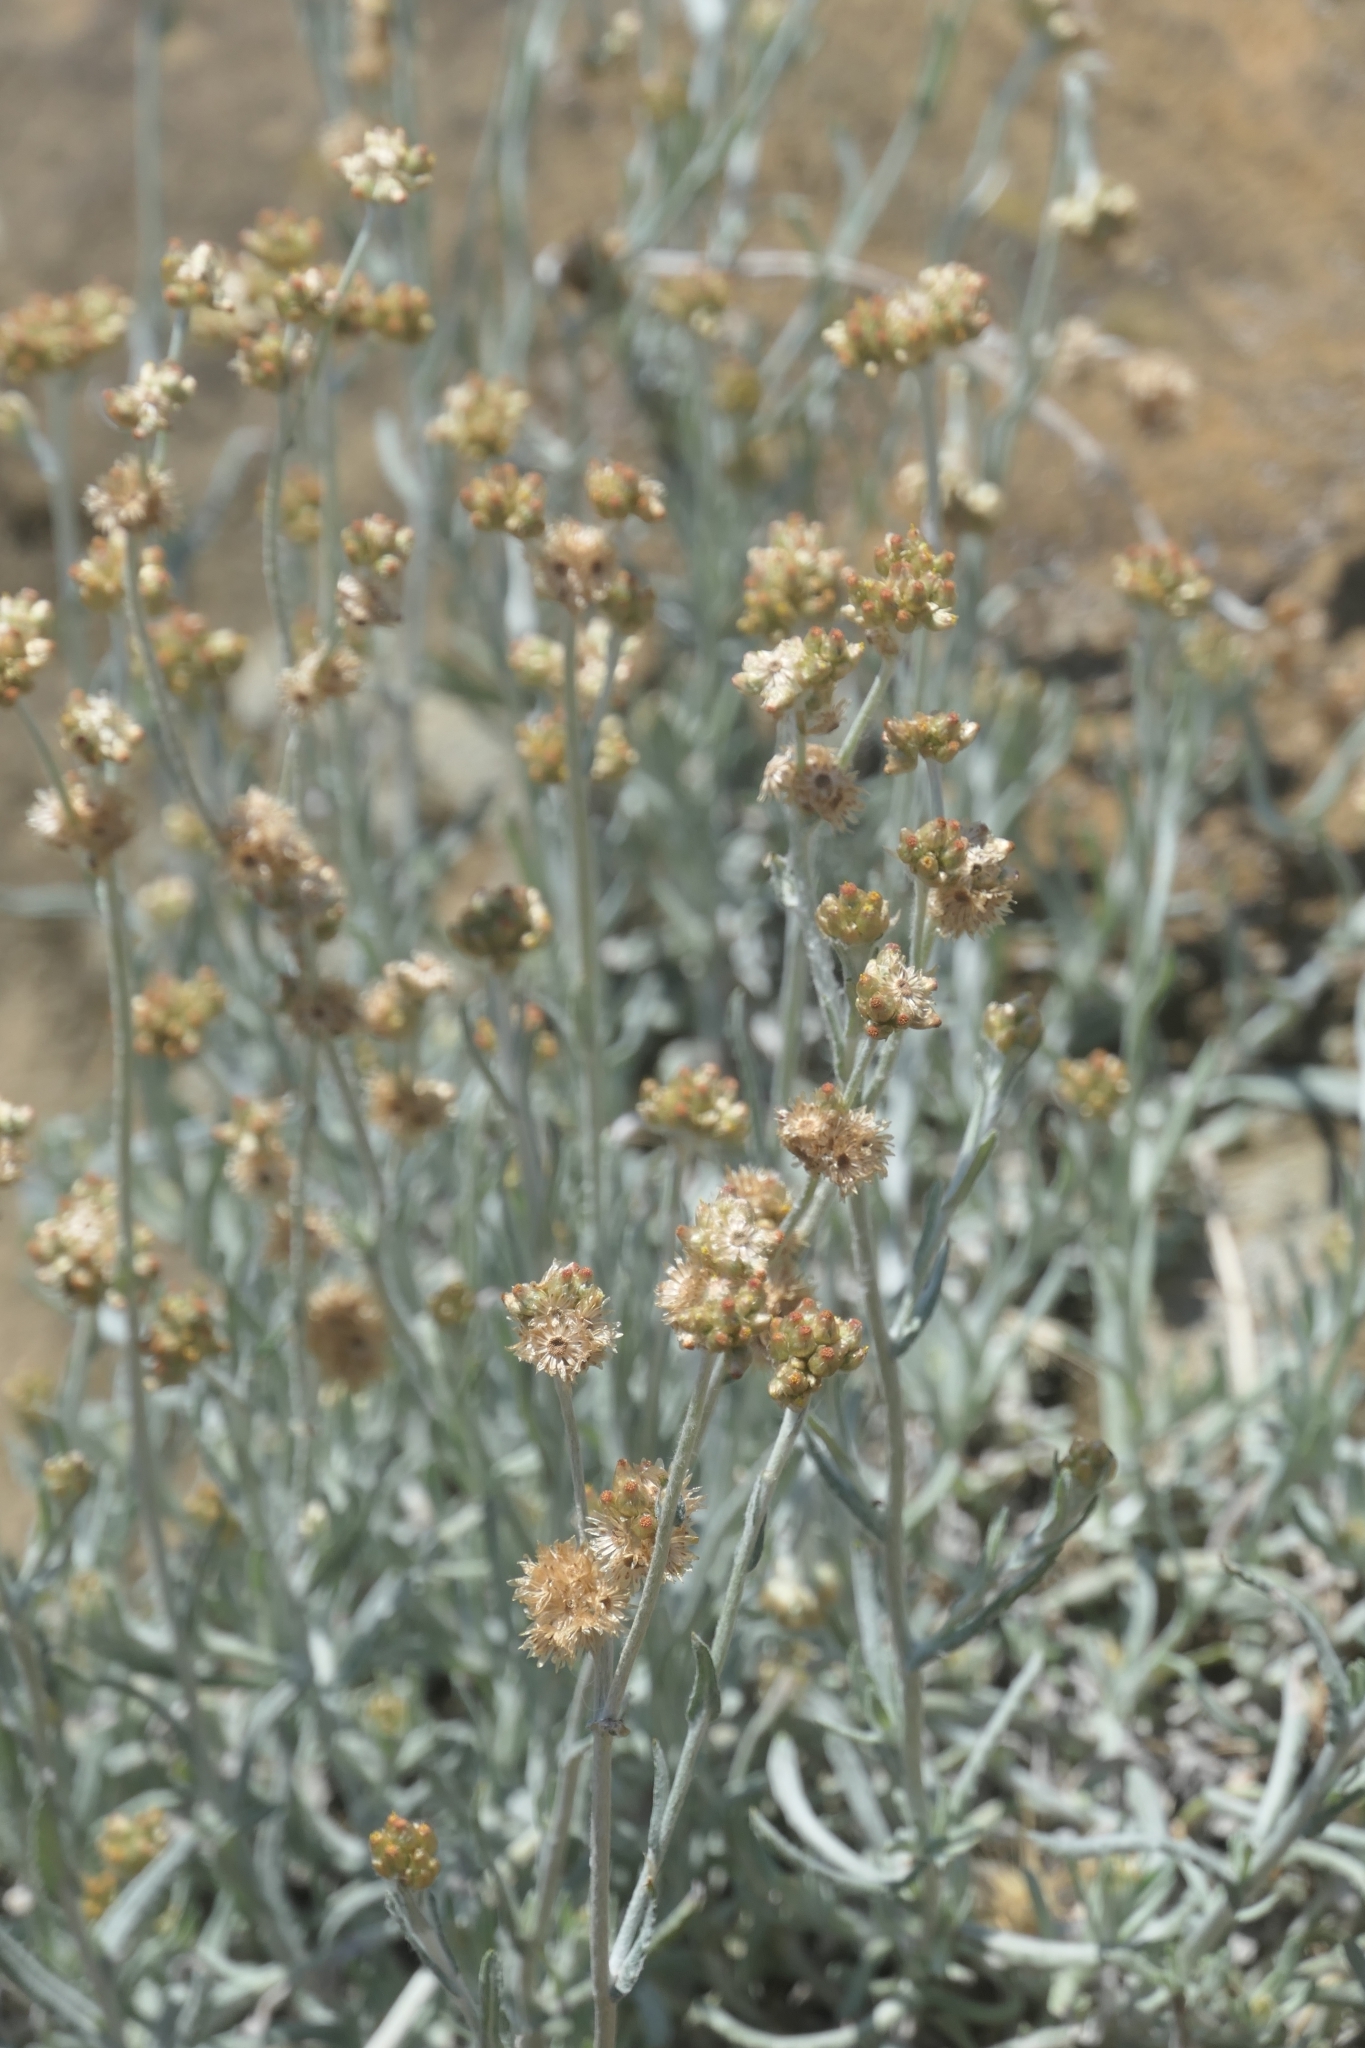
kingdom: Plantae
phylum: Tracheophyta
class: Magnoliopsida
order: Asterales
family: Asteraceae
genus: Helichrysum
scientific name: Helichrysum luteoalbum
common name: Daisy
